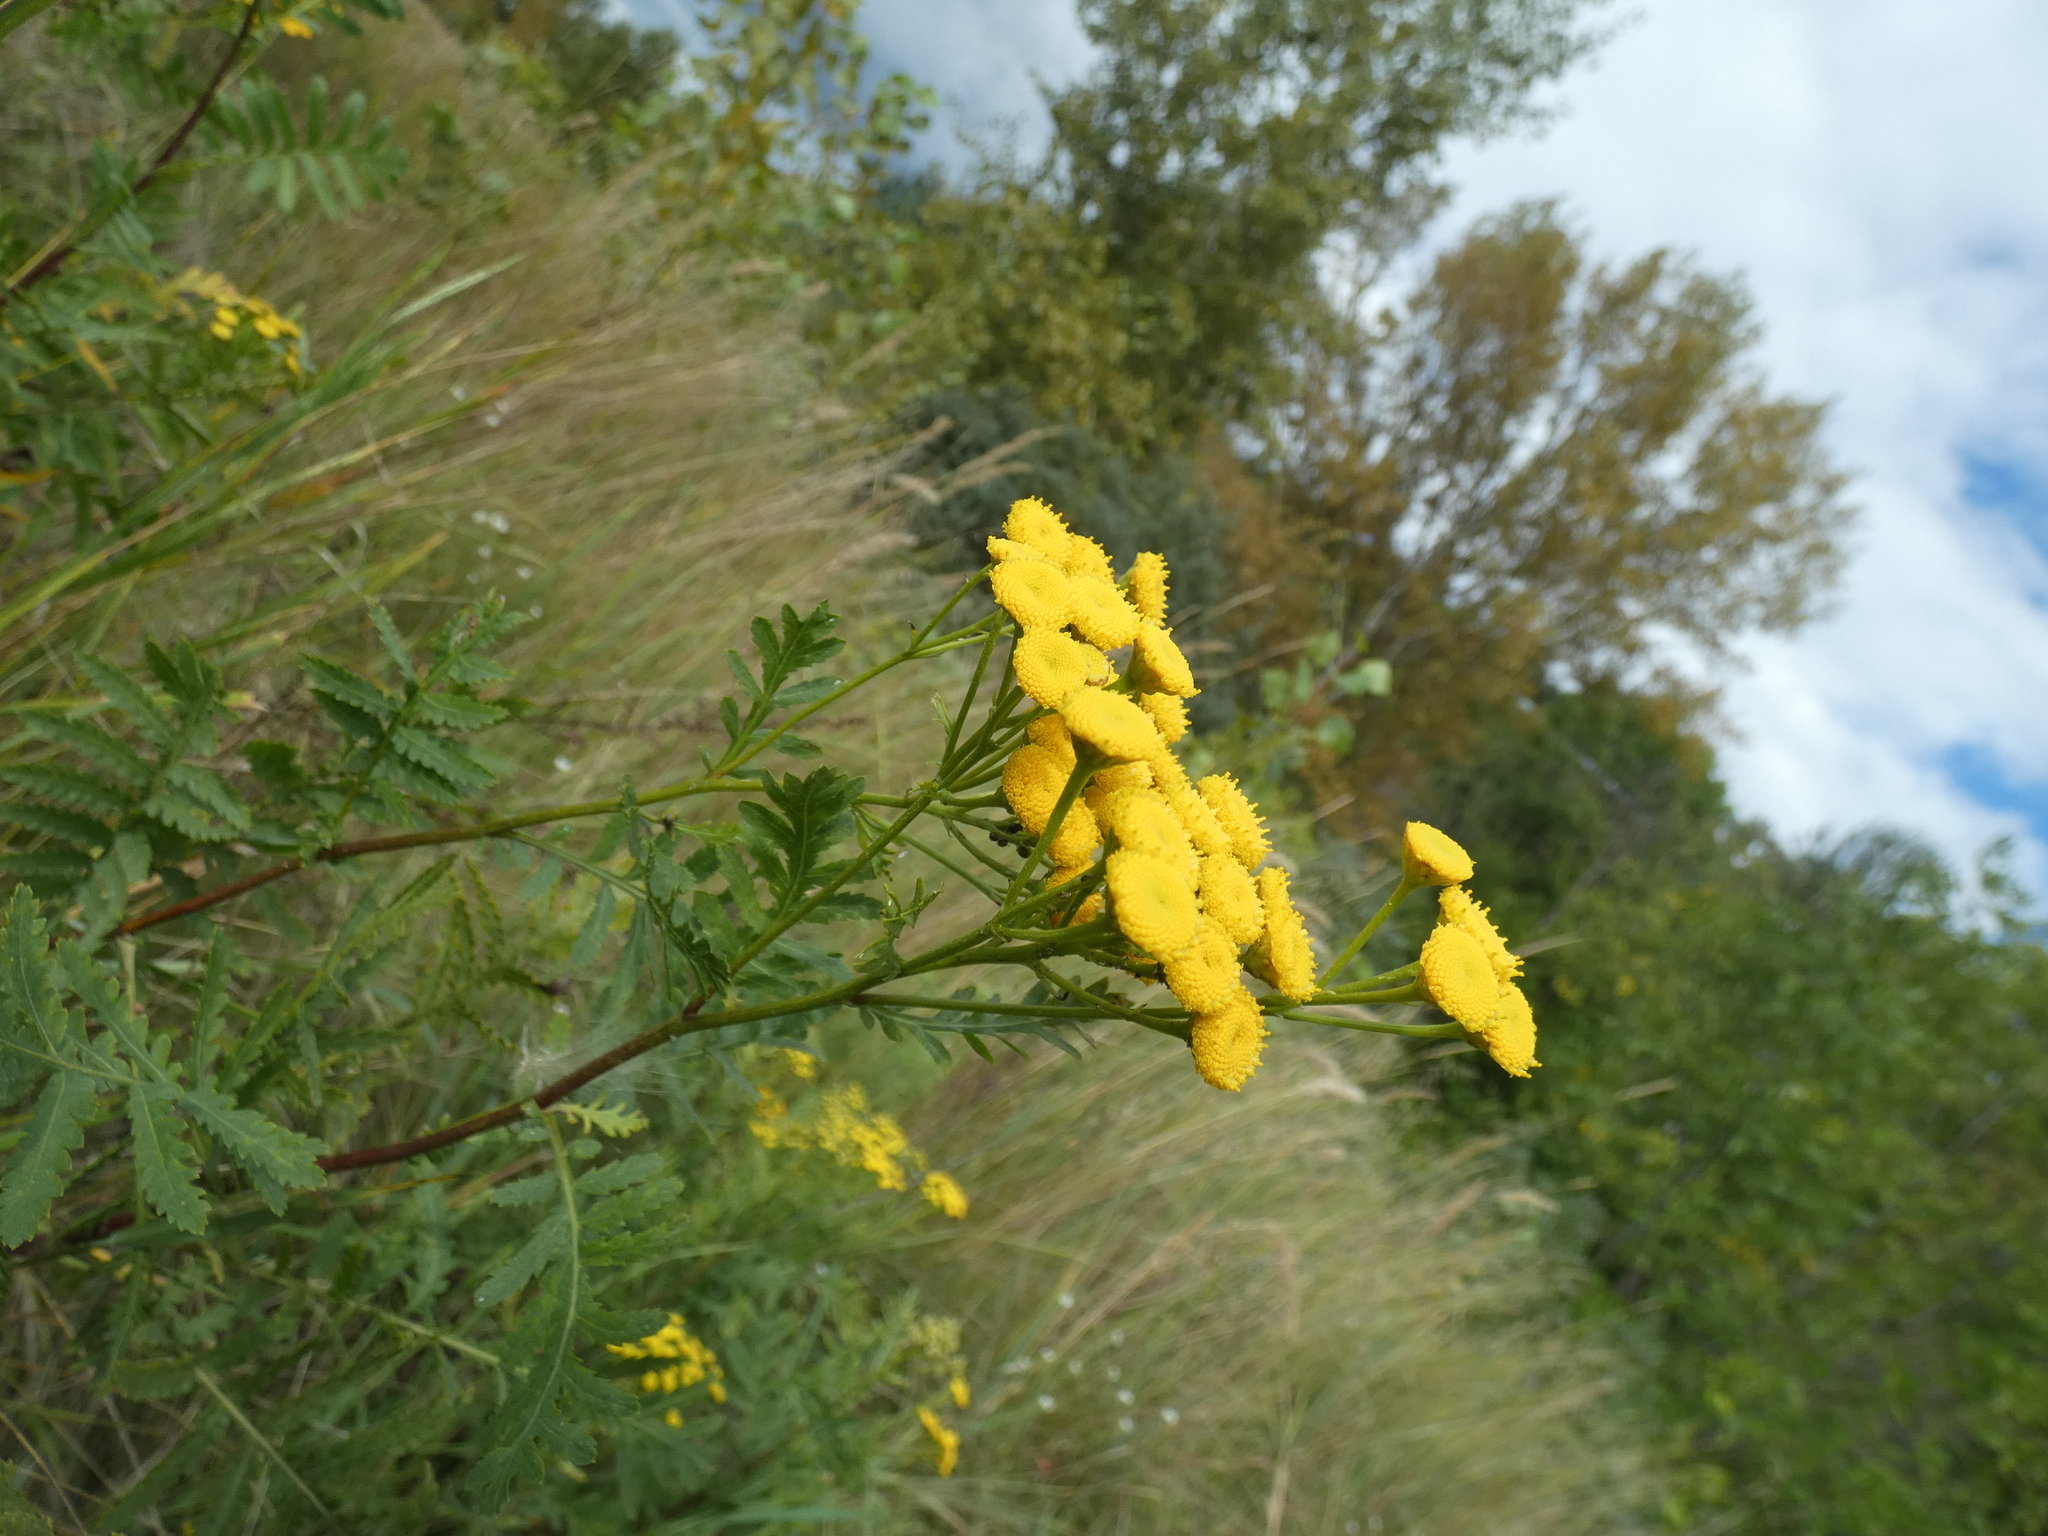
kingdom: Plantae
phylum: Tracheophyta
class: Magnoliopsida
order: Asterales
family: Asteraceae
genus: Tanacetum
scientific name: Tanacetum vulgare
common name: Common tansy
